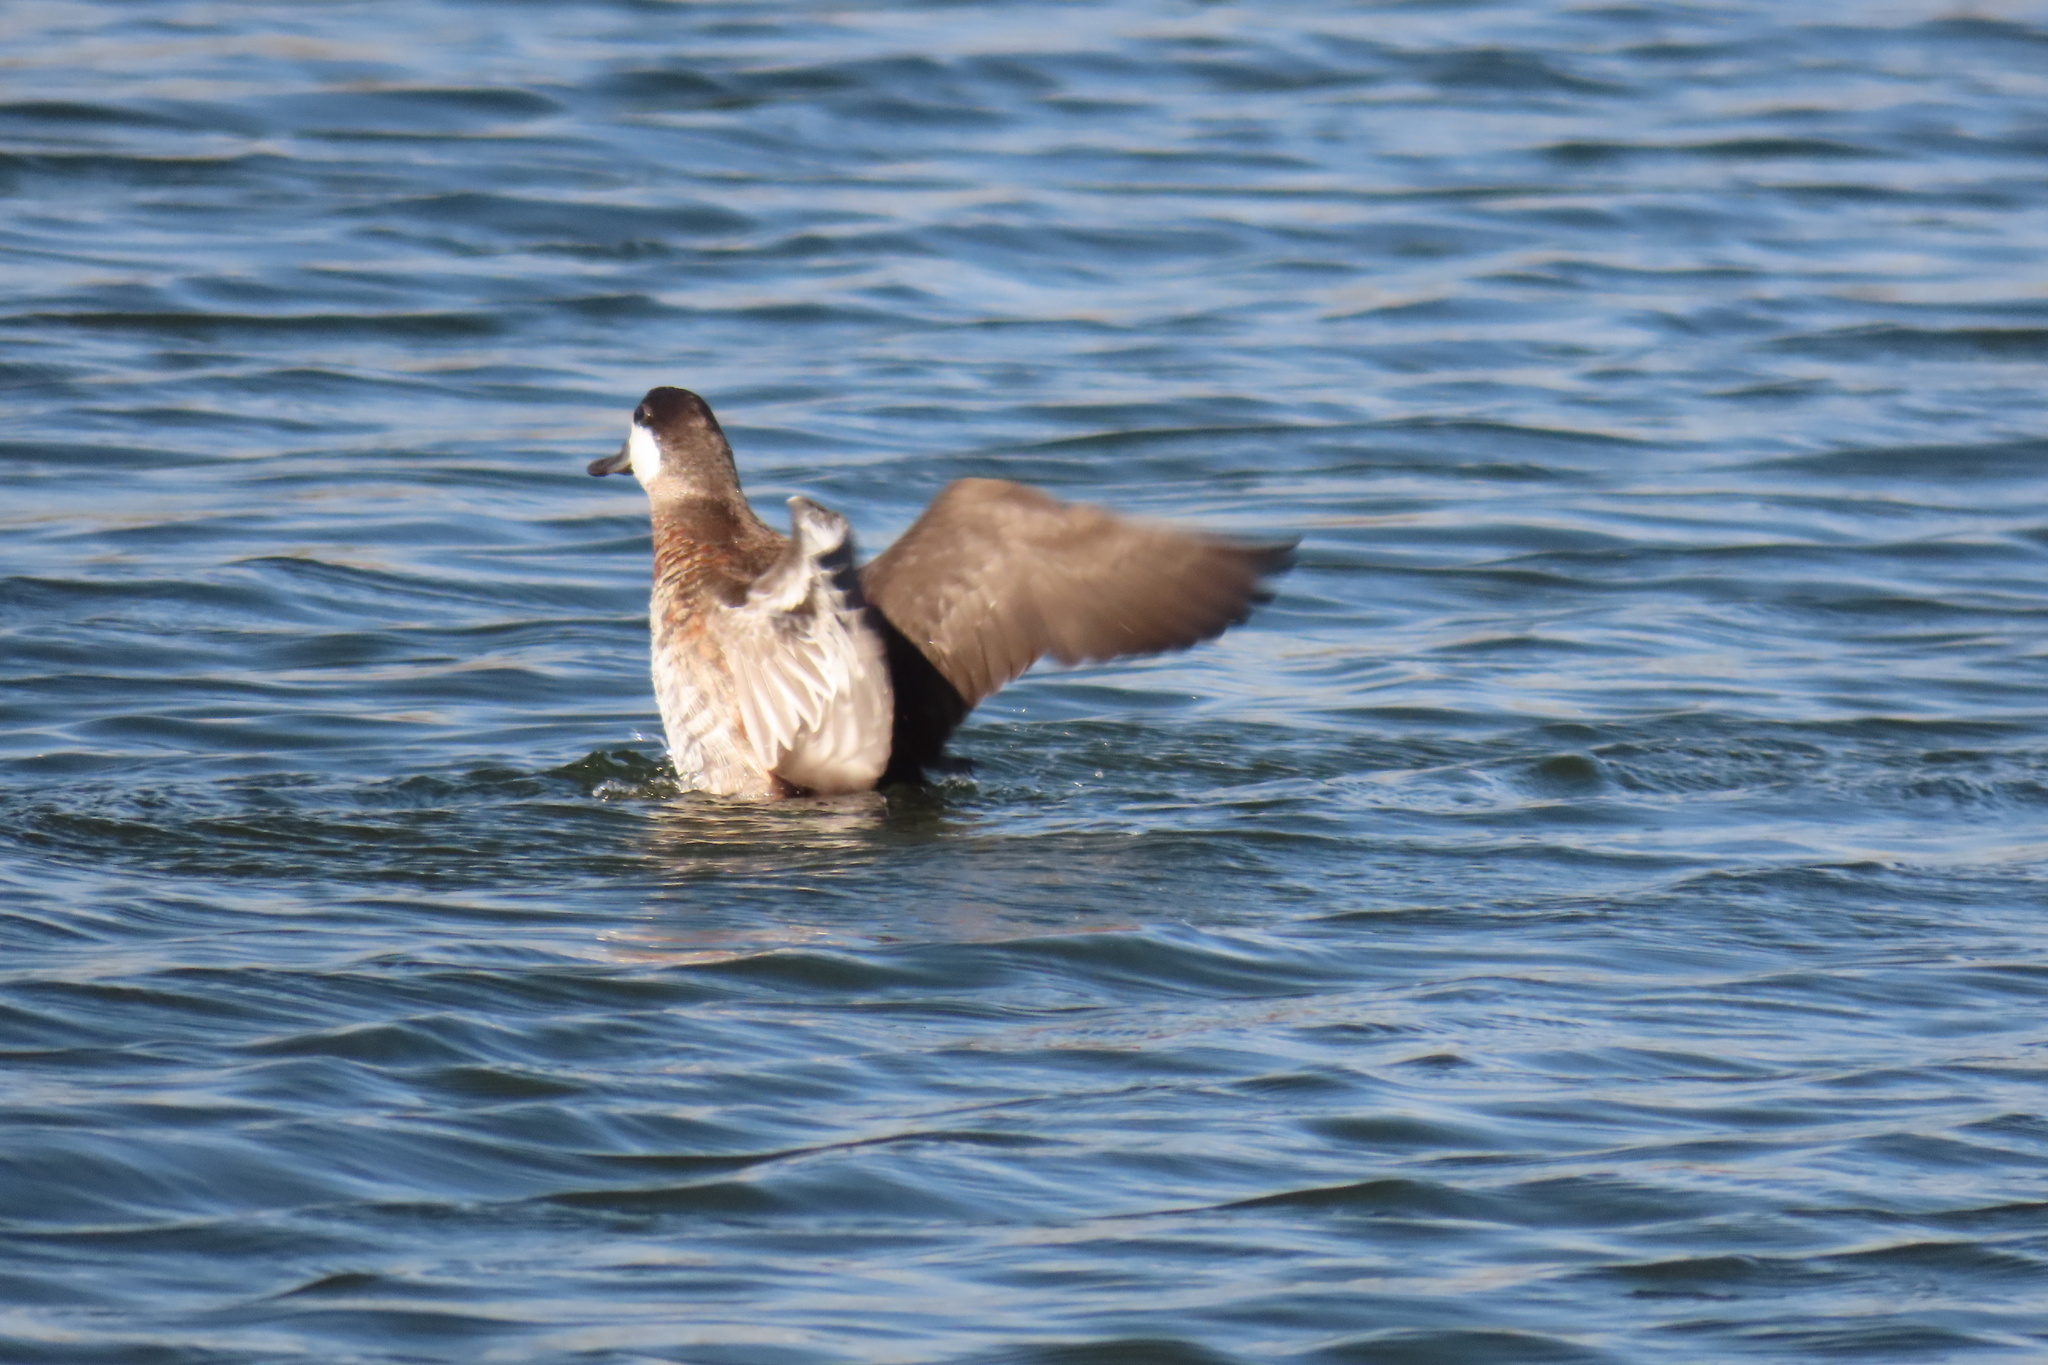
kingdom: Animalia
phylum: Chordata
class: Aves
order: Anseriformes
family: Anatidae
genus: Oxyura
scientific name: Oxyura jamaicensis
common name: Ruddy duck
